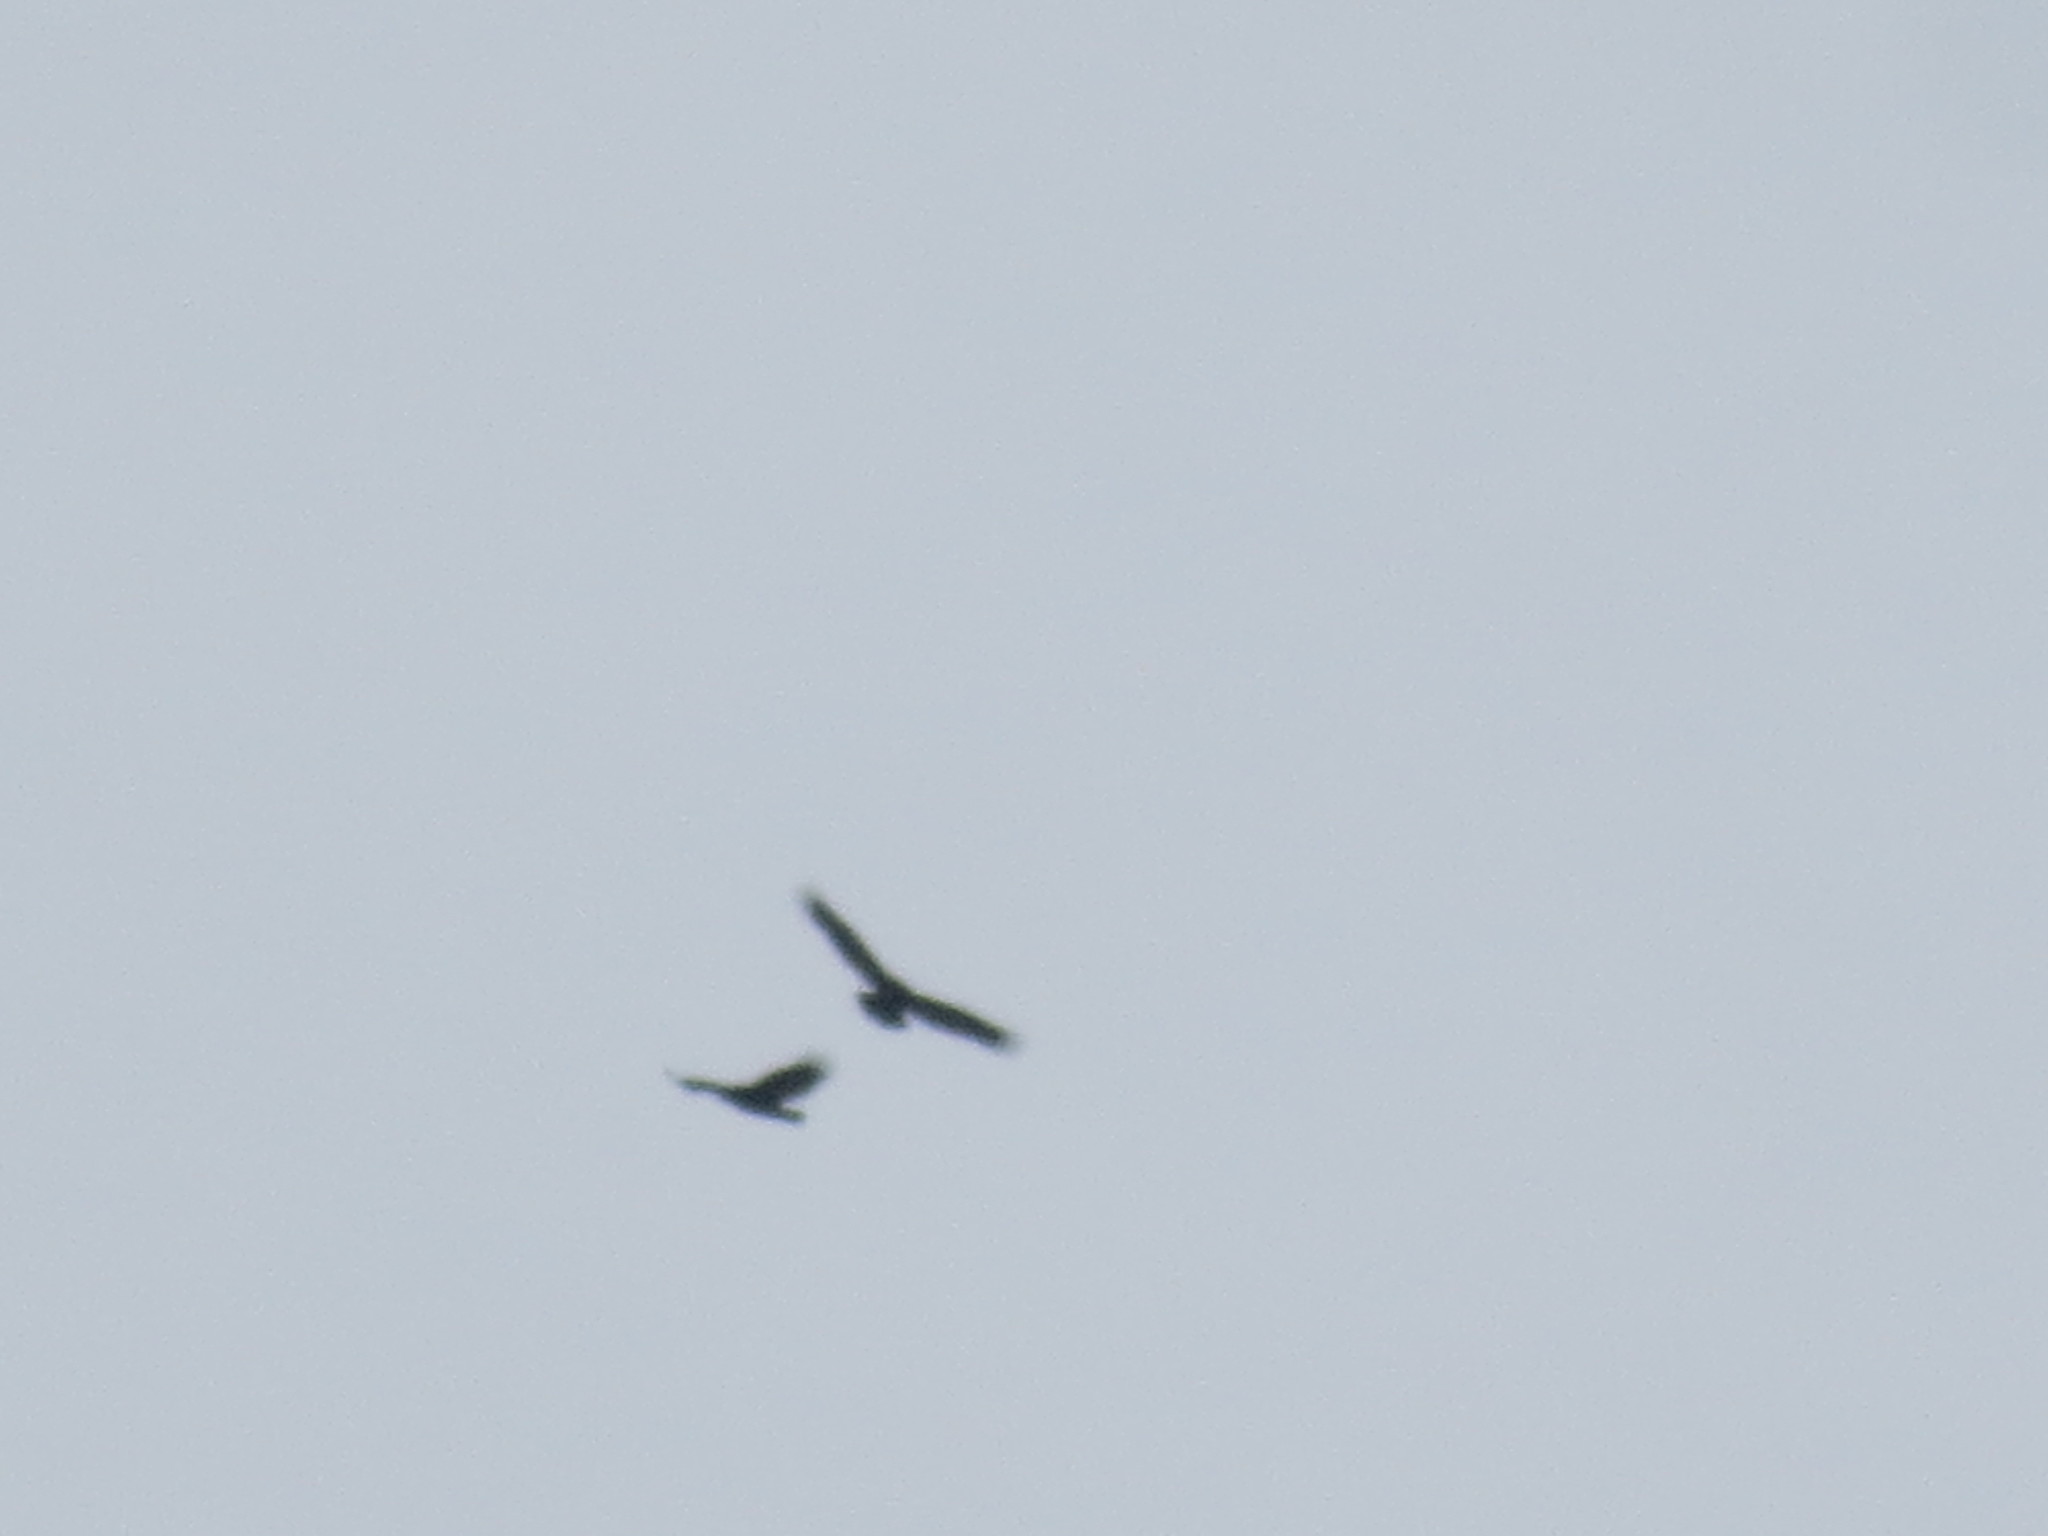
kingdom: Animalia
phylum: Chordata
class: Aves
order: Accipitriformes
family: Cathartidae
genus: Cathartes
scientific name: Cathartes aura
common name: Turkey vulture
